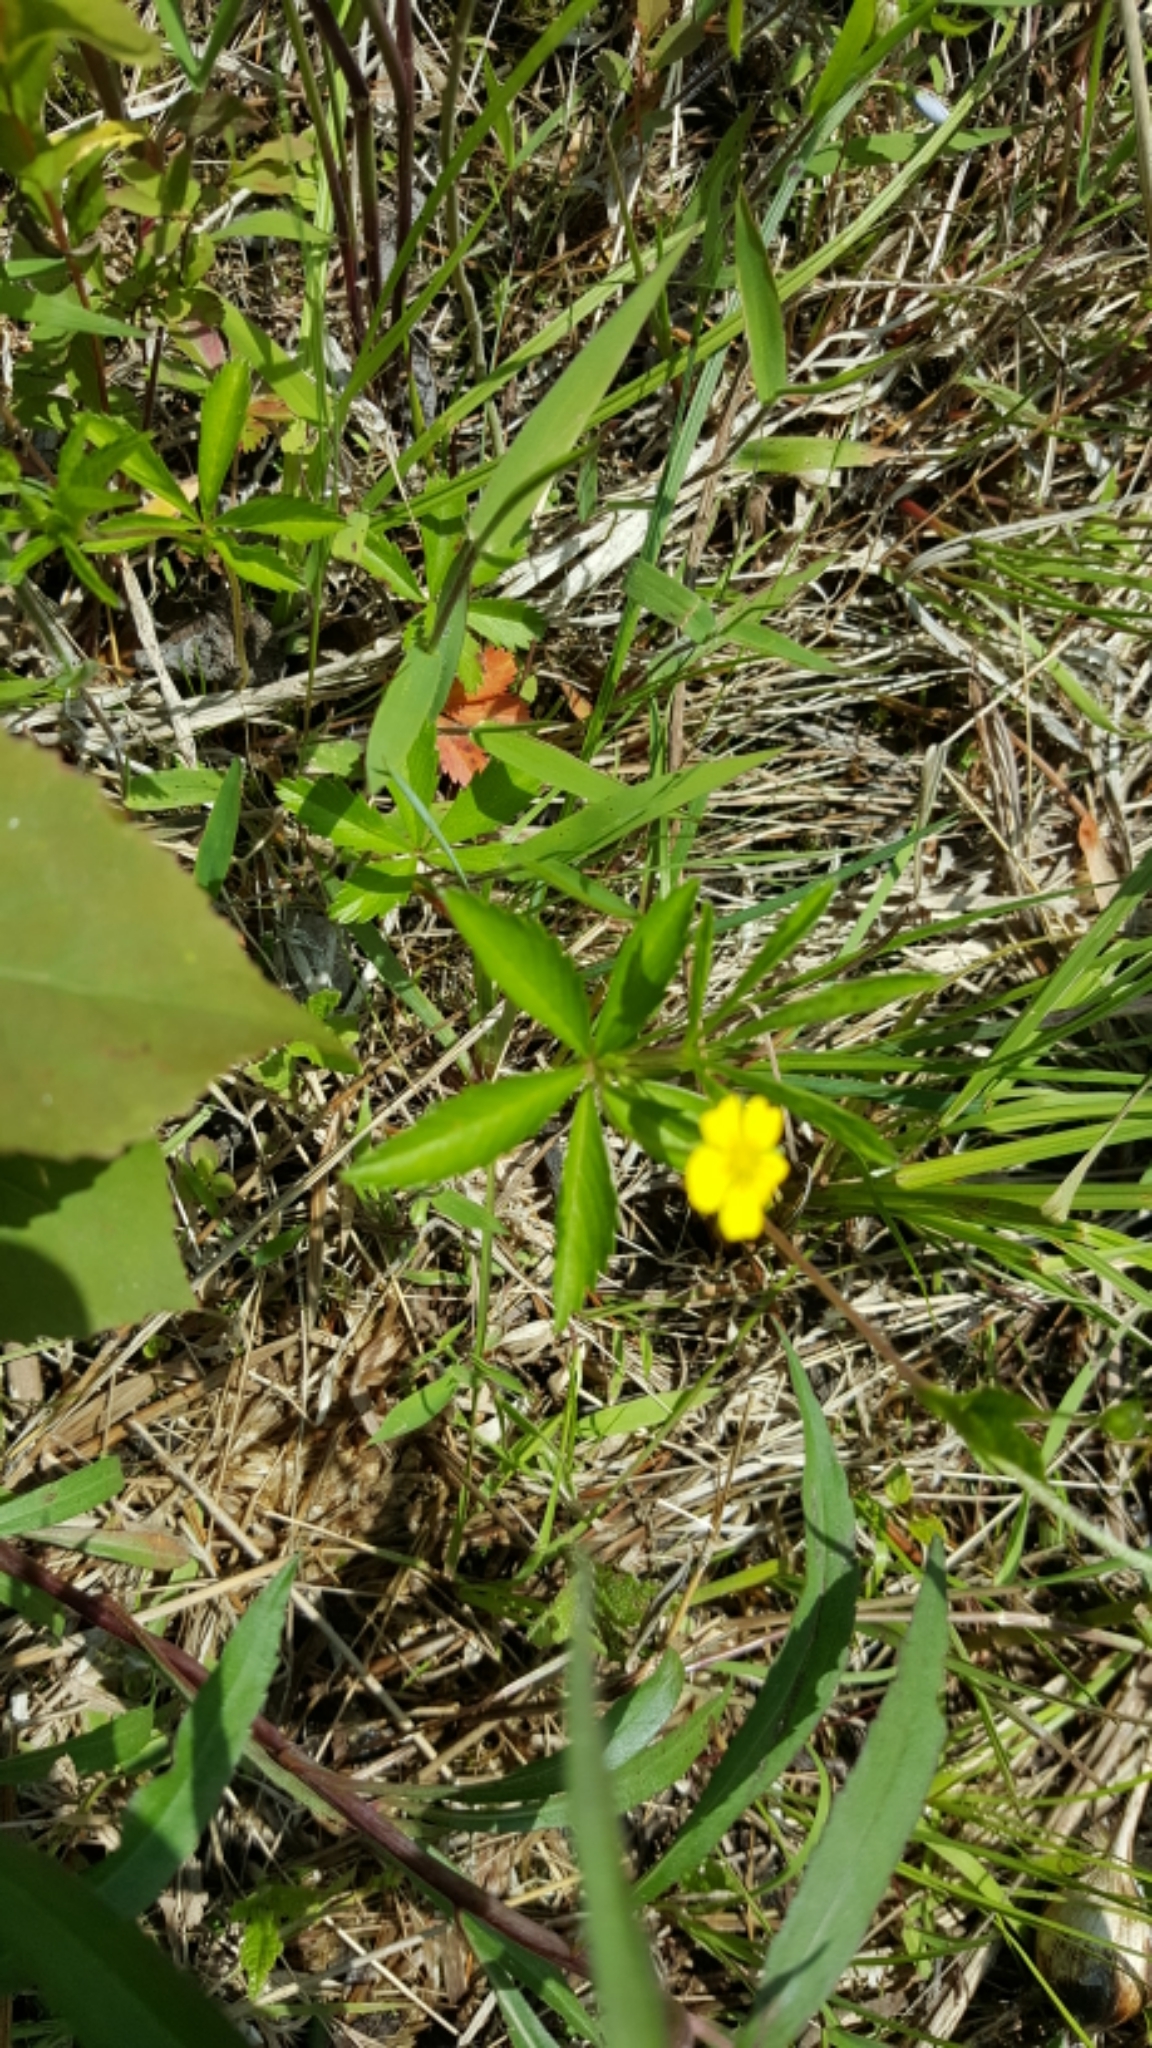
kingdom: Plantae
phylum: Tracheophyta
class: Magnoliopsida
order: Rosales
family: Rosaceae
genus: Potentilla
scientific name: Potentilla simplex
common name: Old field cinquefoil
